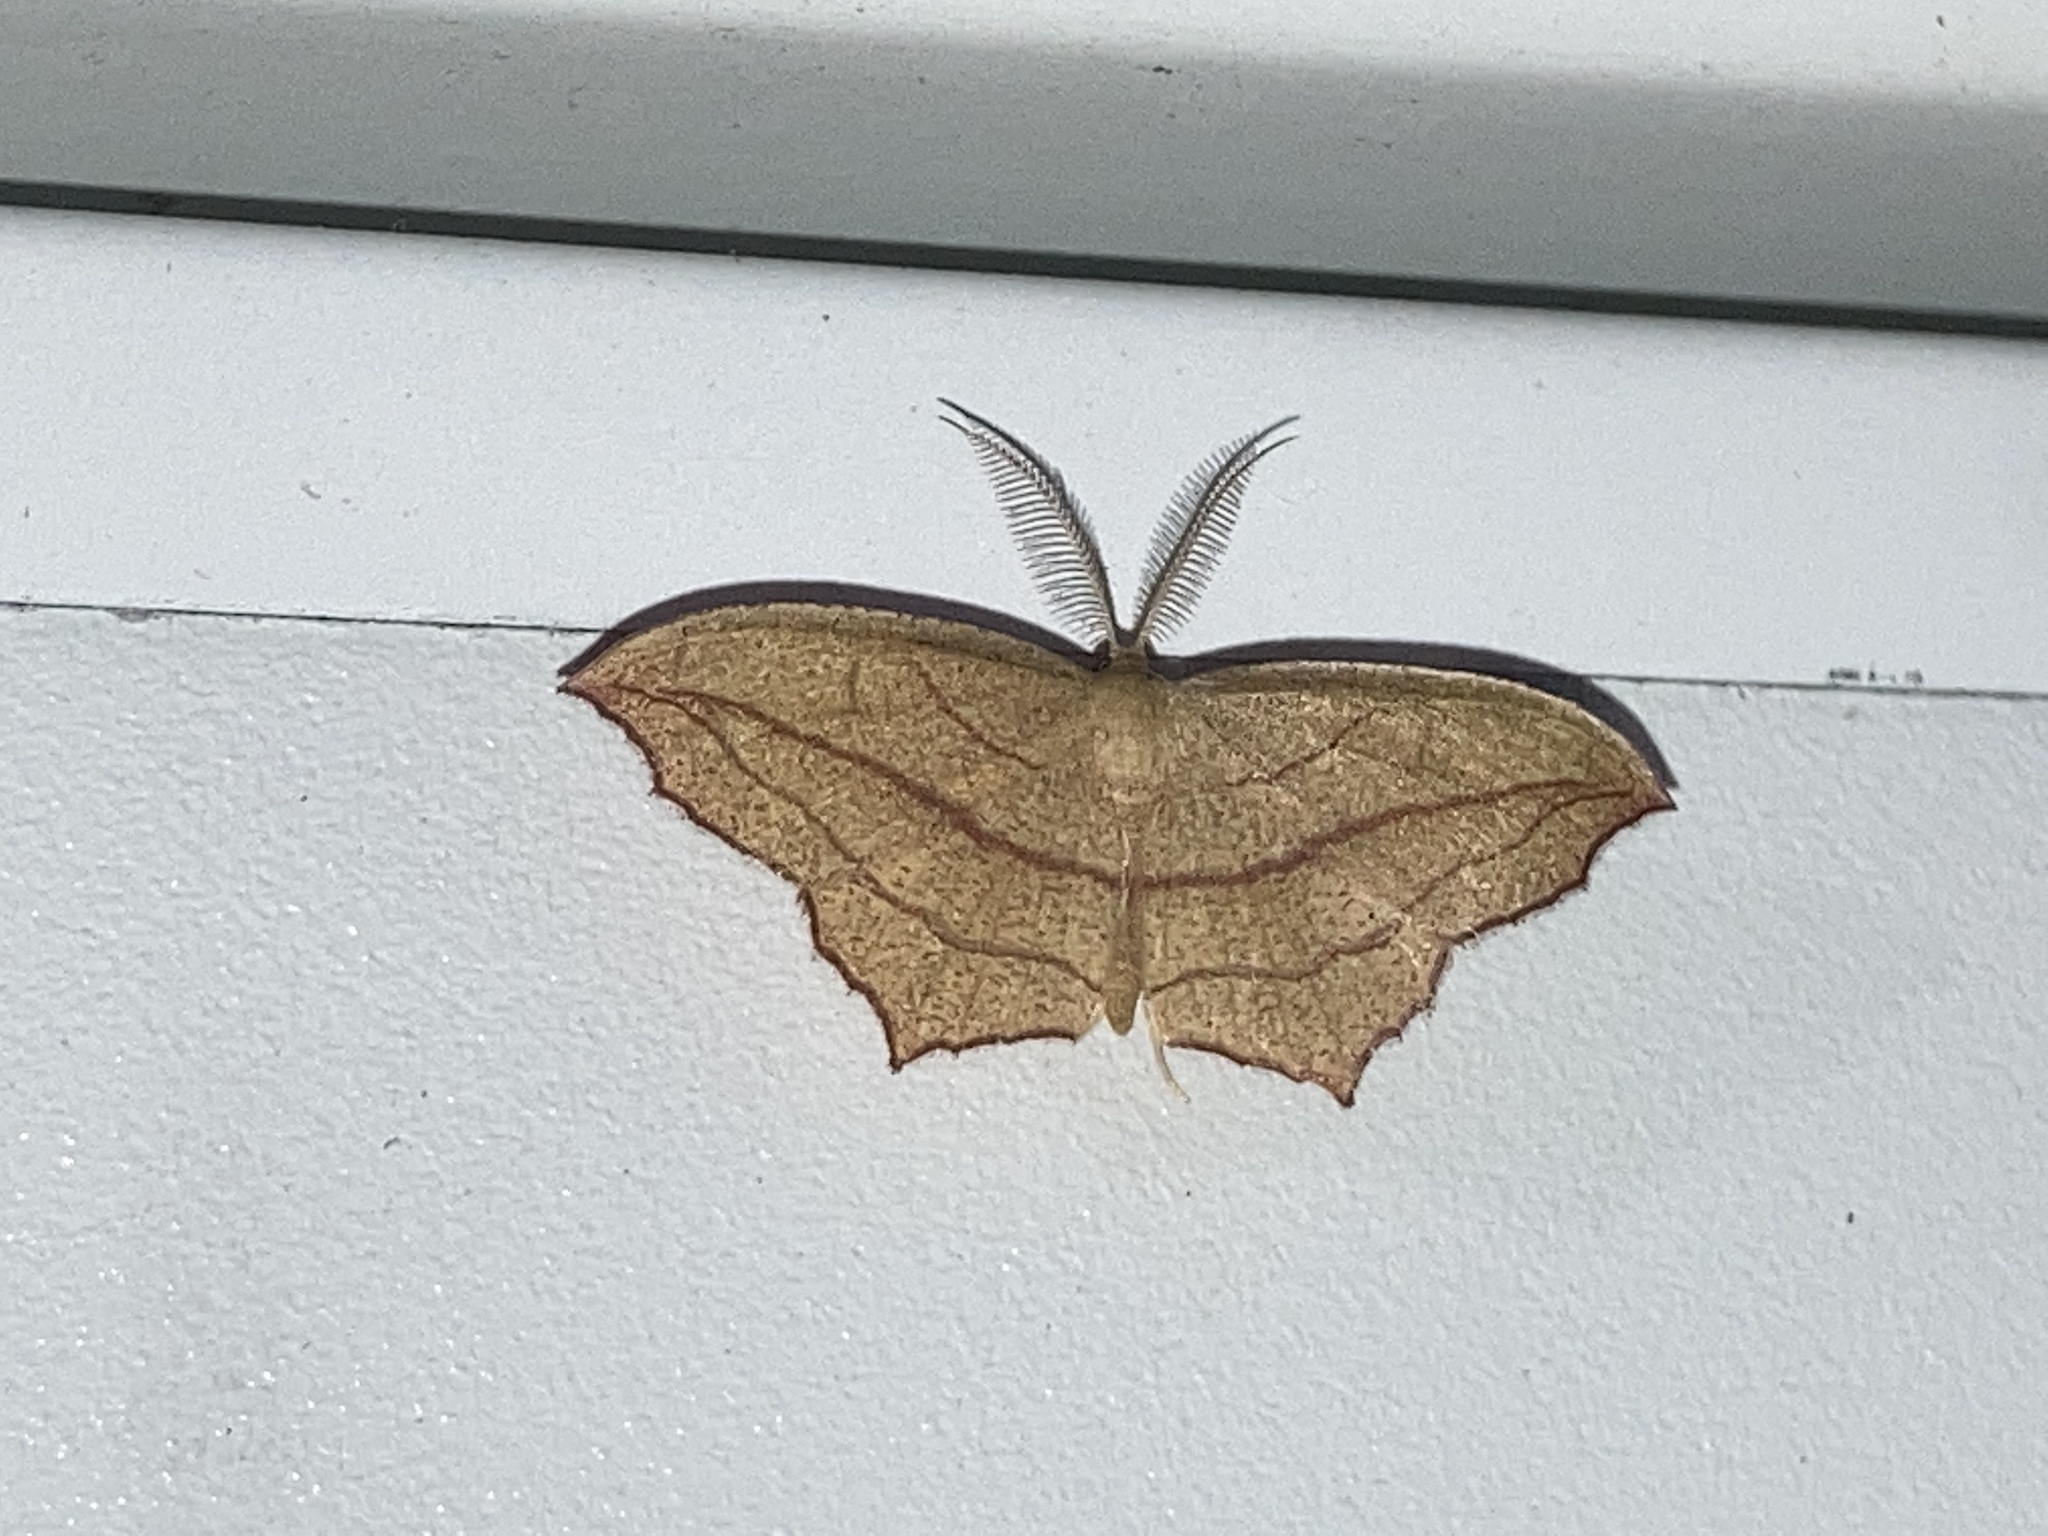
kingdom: Animalia
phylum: Arthropoda
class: Insecta
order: Lepidoptera
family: Geometridae
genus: Timandra
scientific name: Timandra amaturaria
